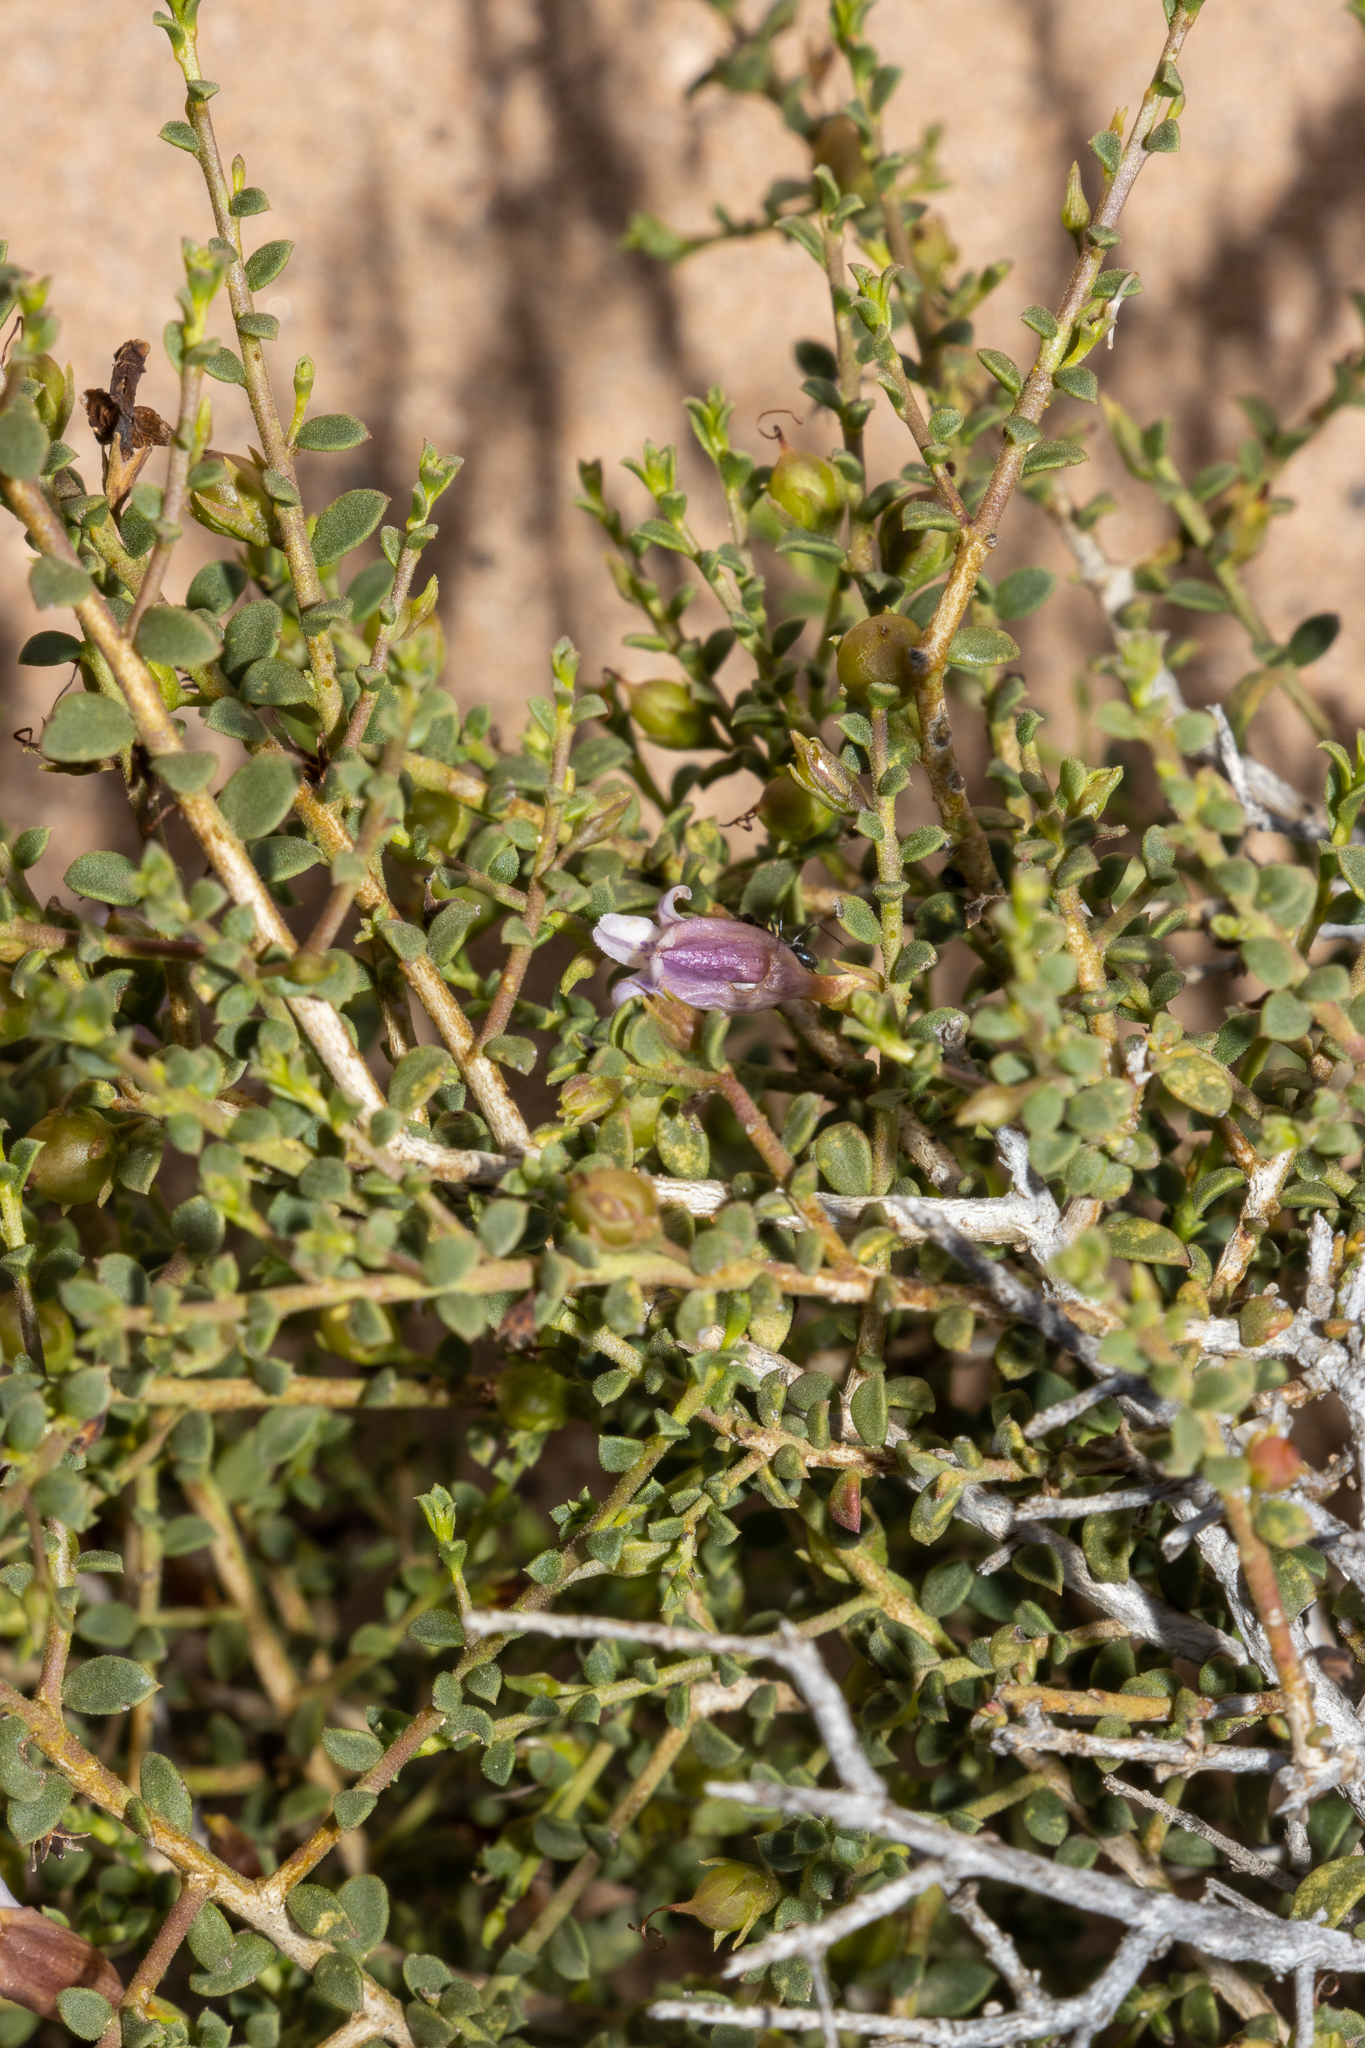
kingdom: Plantae
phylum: Tracheophyta
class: Magnoliopsida
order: Lamiales
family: Scrophulariaceae
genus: Eremophila
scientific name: Eremophila parvifolia
